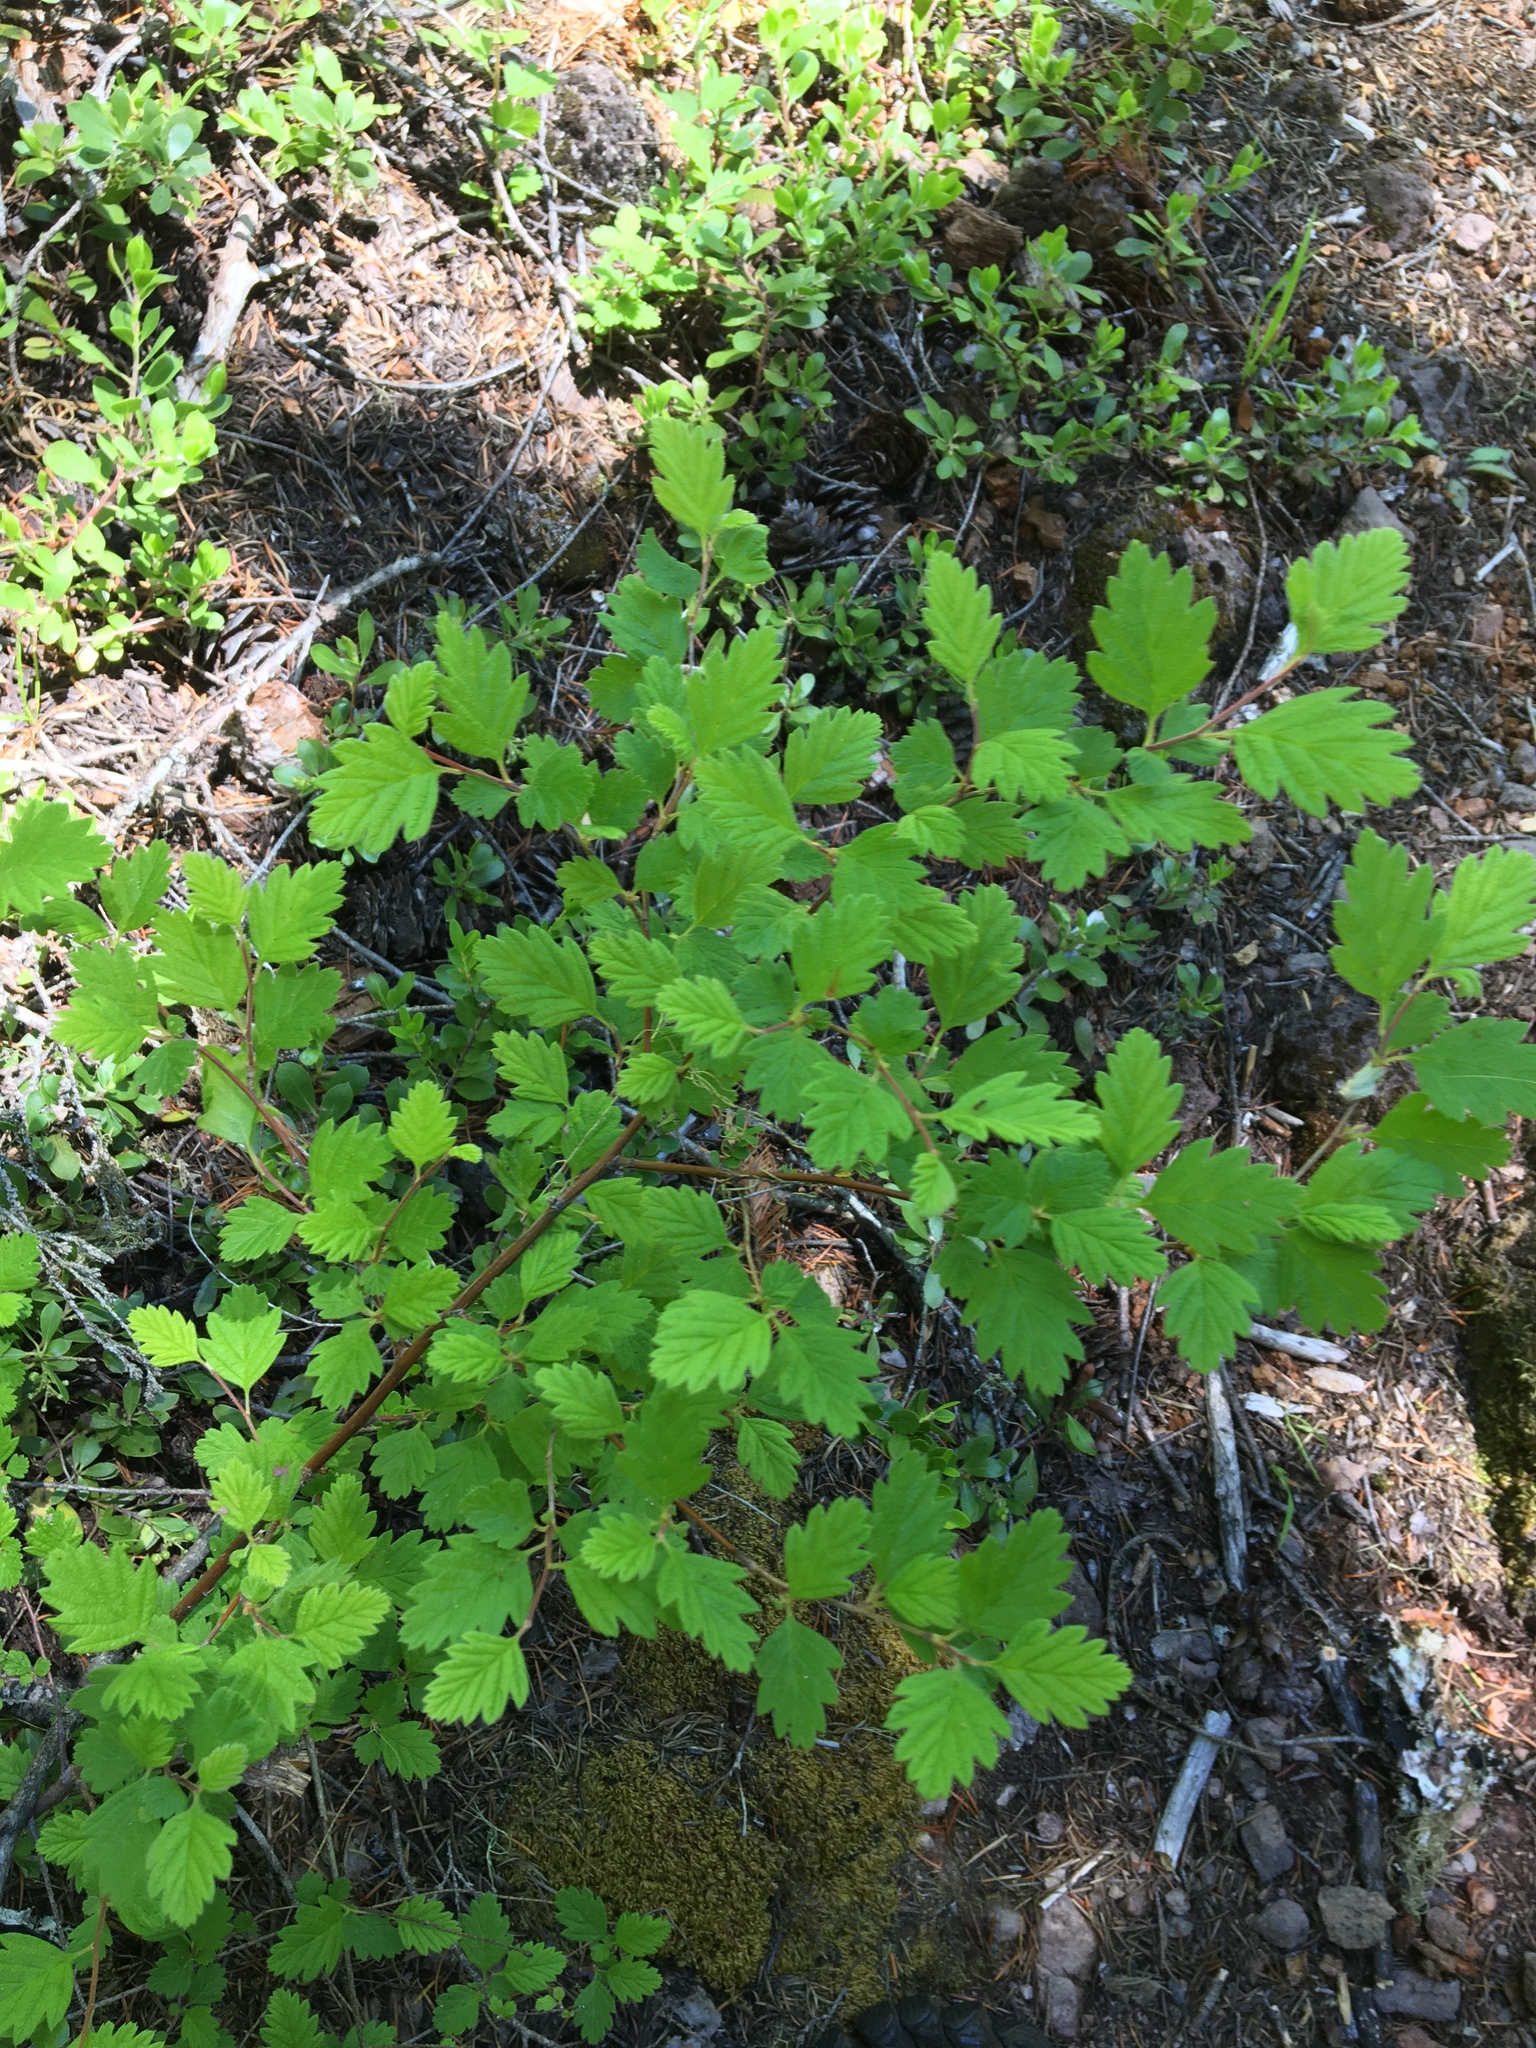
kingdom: Plantae
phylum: Tracheophyta
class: Magnoliopsida
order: Rosales
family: Rosaceae
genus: Holodiscus
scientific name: Holodiscus discolor
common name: Oceanspray
